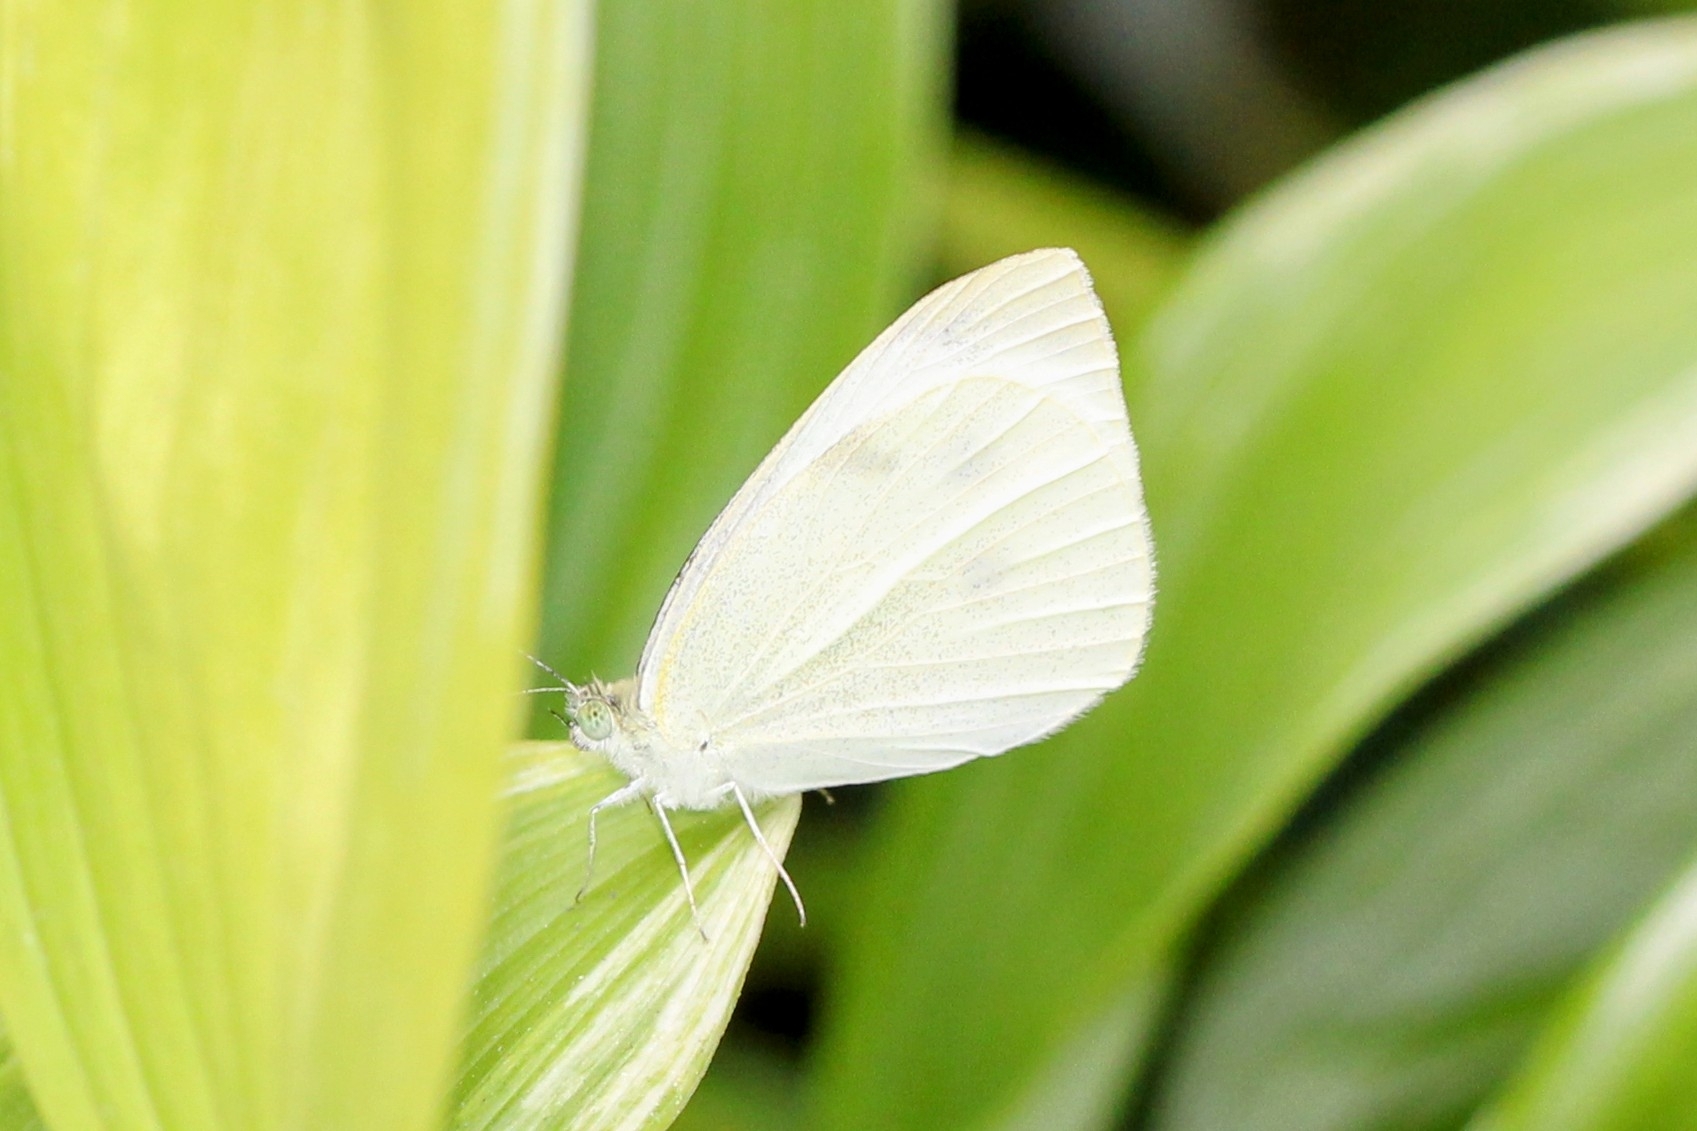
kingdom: Animalia
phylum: Arthropoda
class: Insecta
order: Lepidoptera
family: Pieridae
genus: Pieris
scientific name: Pieris rapae
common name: Small white
